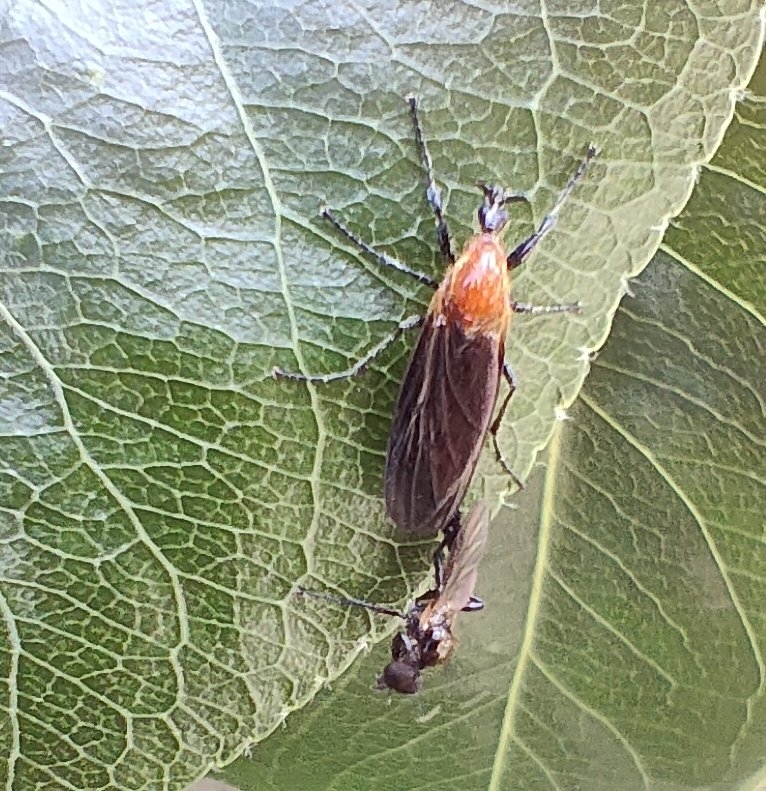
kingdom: Animalia
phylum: Arthropoda
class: Insecta
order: Diptera
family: Bibionidae
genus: Bibio
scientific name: Bibio imitator
